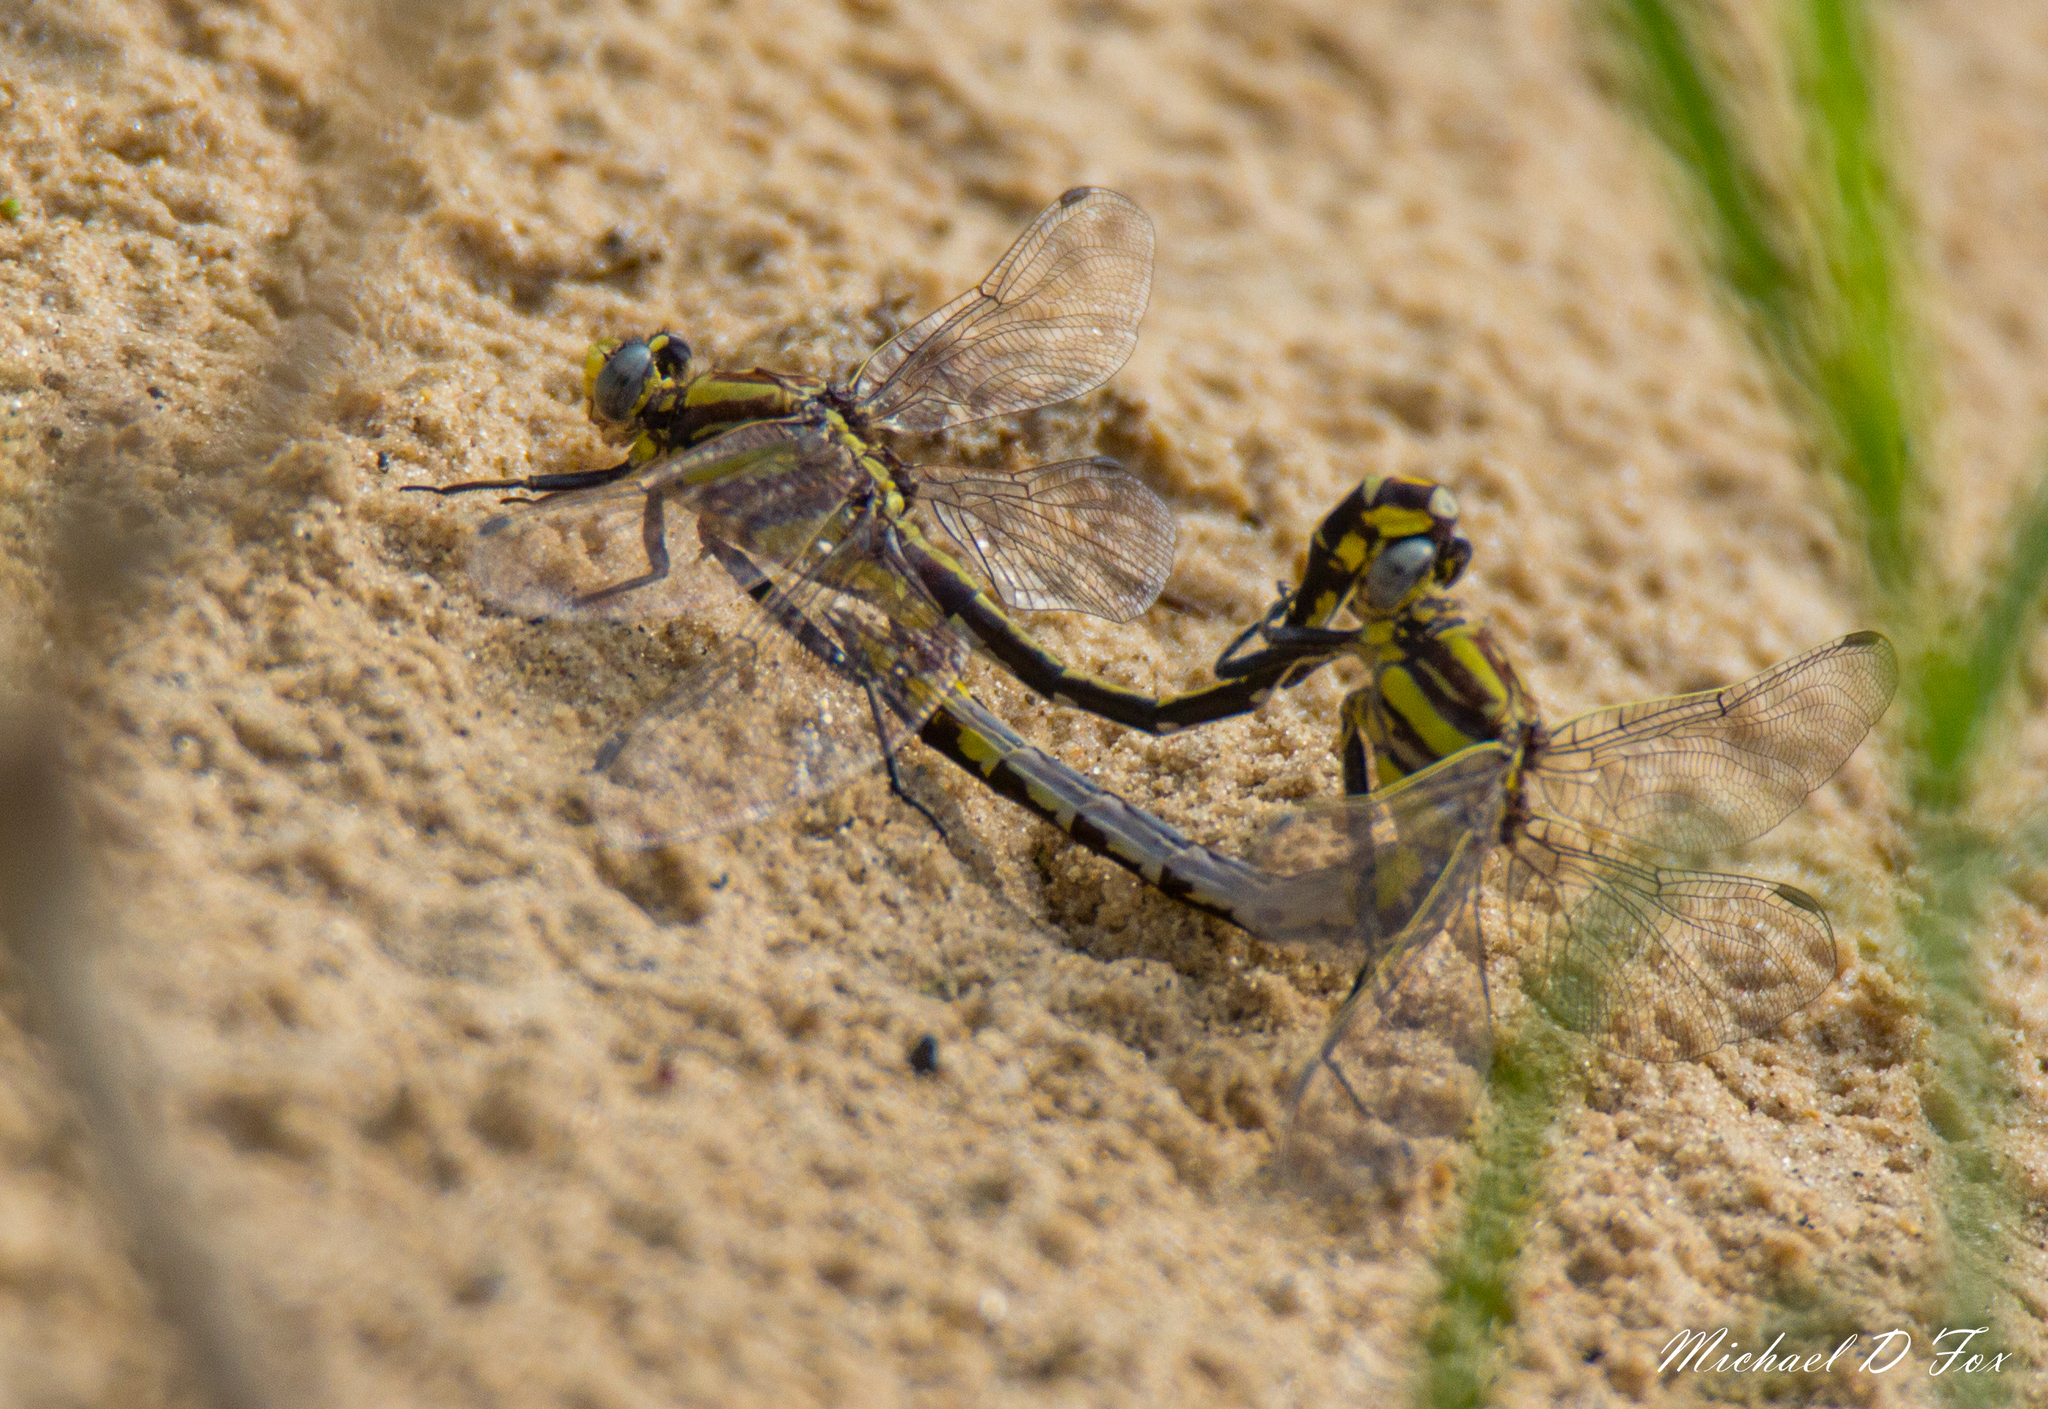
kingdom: Animalia
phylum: Arthropoda
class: Insecta
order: Odonata
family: Gomphidae
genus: Gomphurus
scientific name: Gomphurus externus
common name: Plains clubtail
